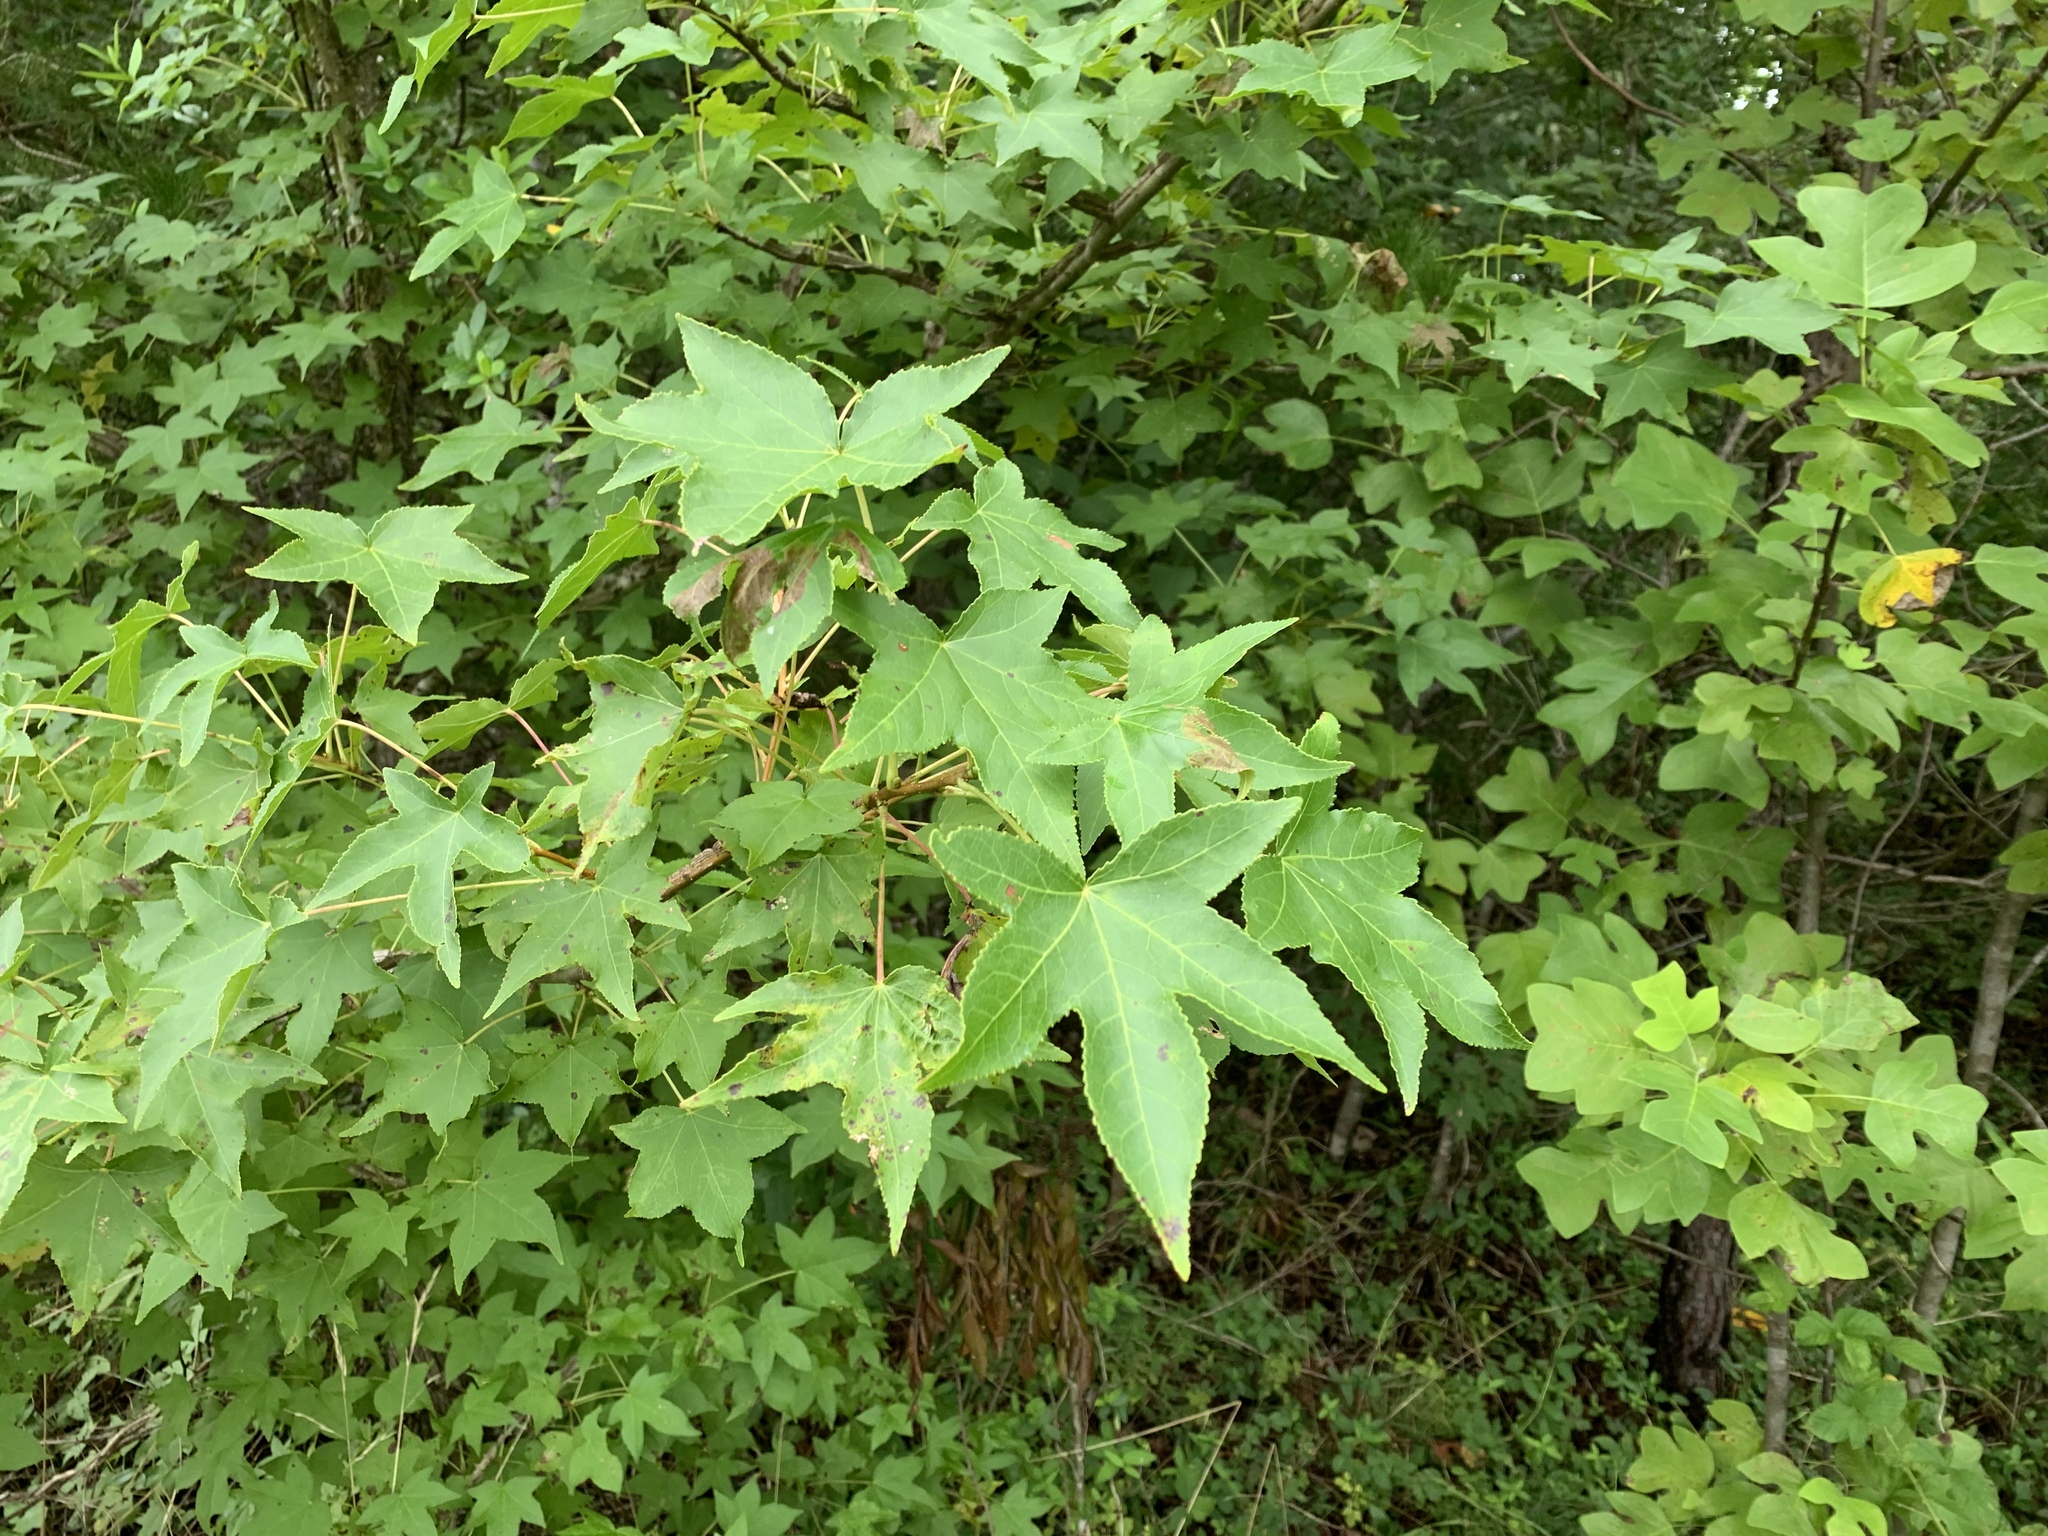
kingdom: Plantae
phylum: Tracheophyta
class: Magnoliopsida
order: Saxifragales
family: Altingiaceae
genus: Liquidambar
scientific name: Liquidambar styraciflua
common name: Sweet gum
